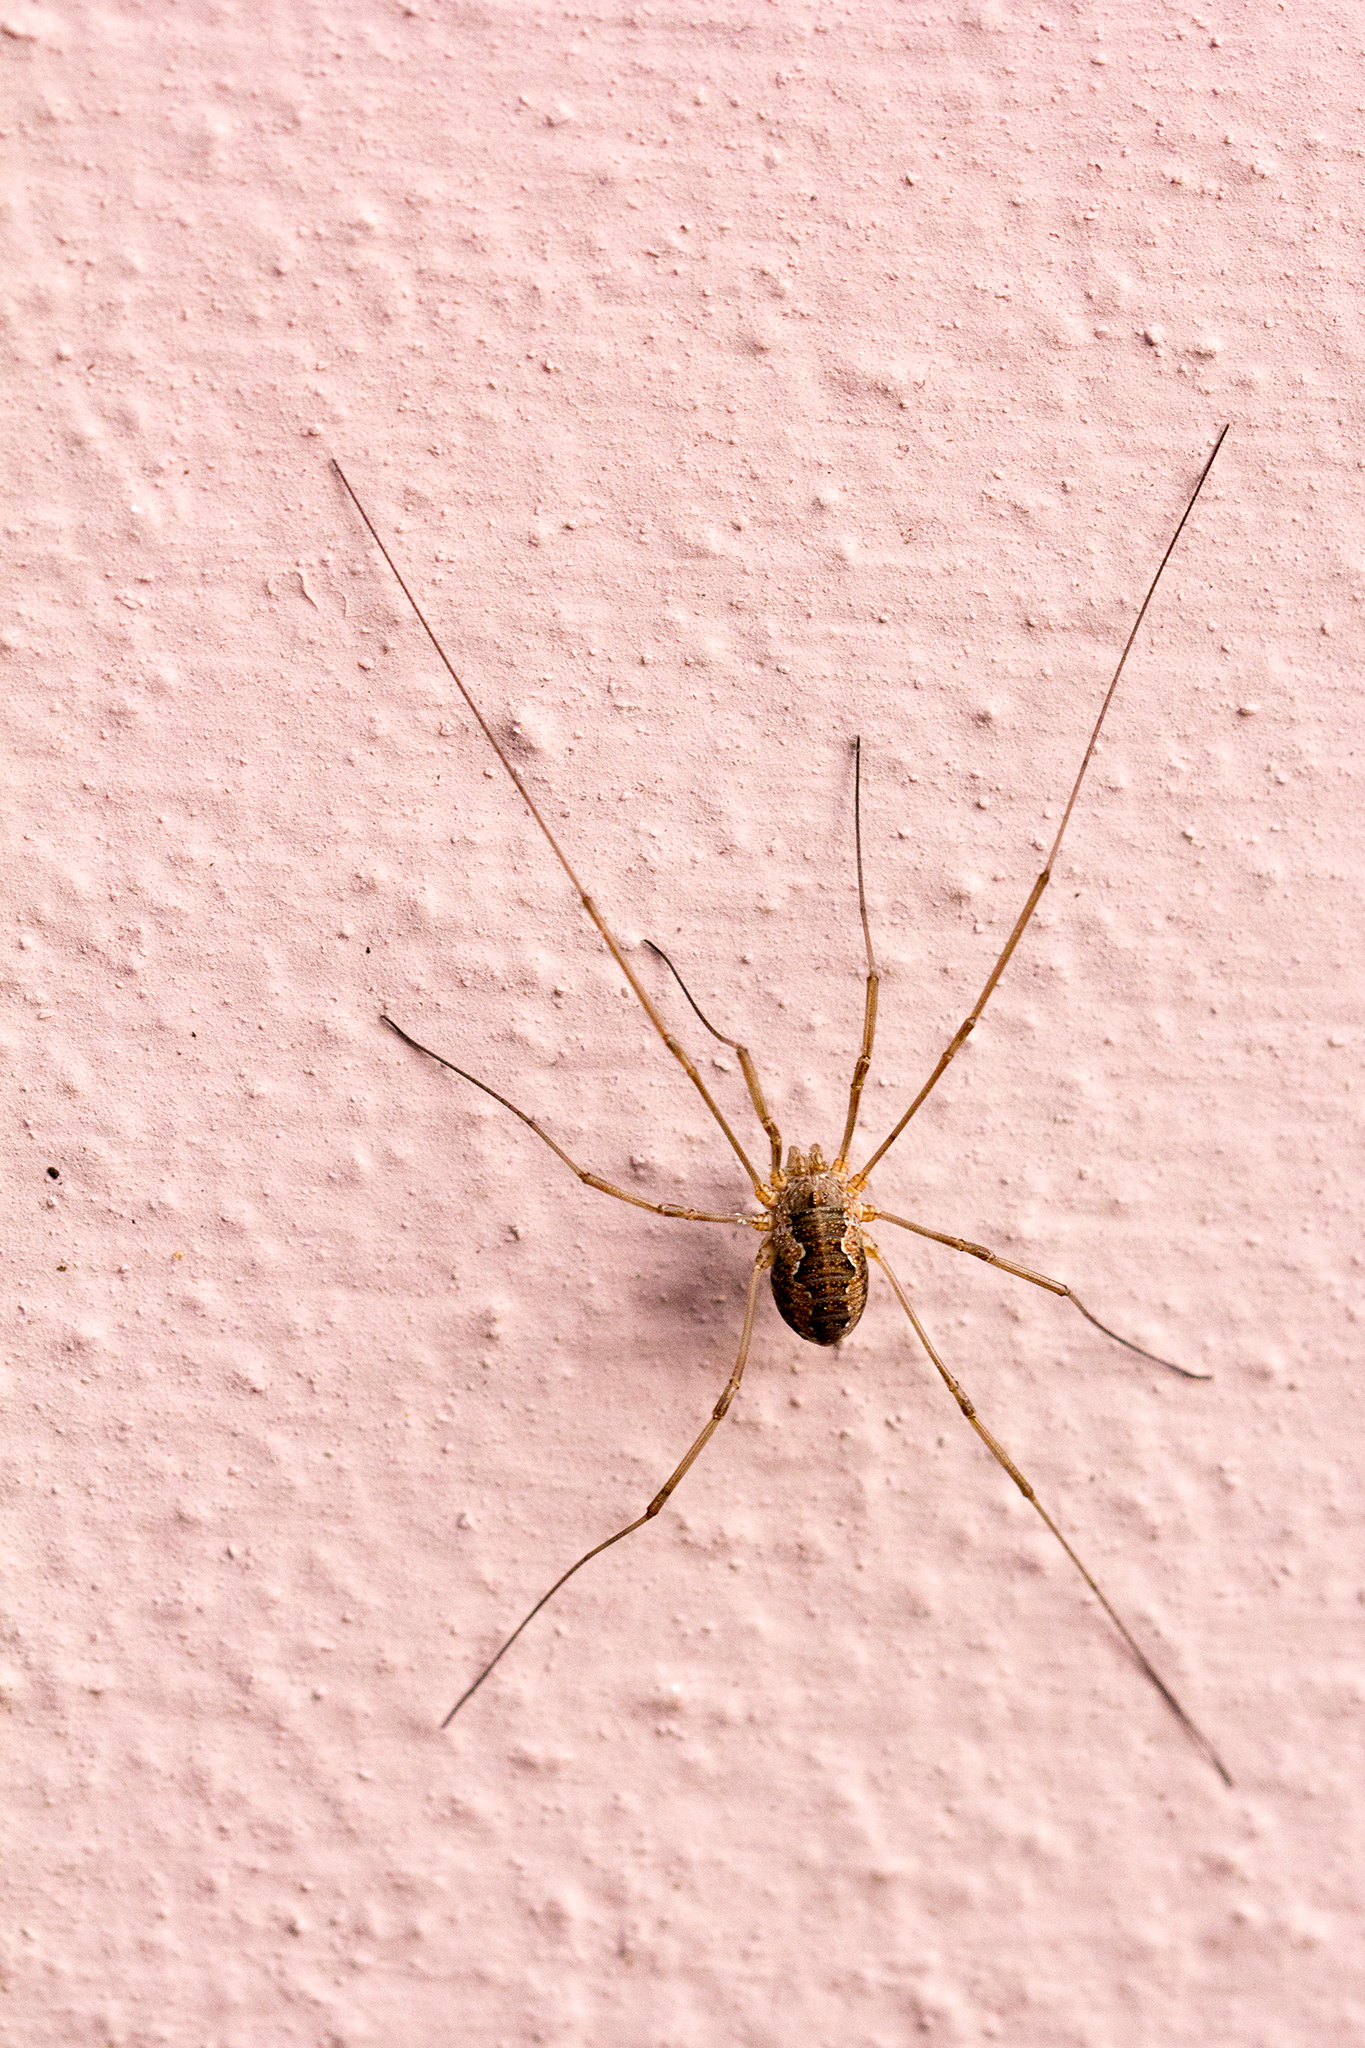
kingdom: Animalia
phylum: Arthropoda
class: Arachnida
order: Opiliones
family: Phalangiidae
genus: Phalangium
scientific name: Phalangium opilio
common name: Daddy longleg
